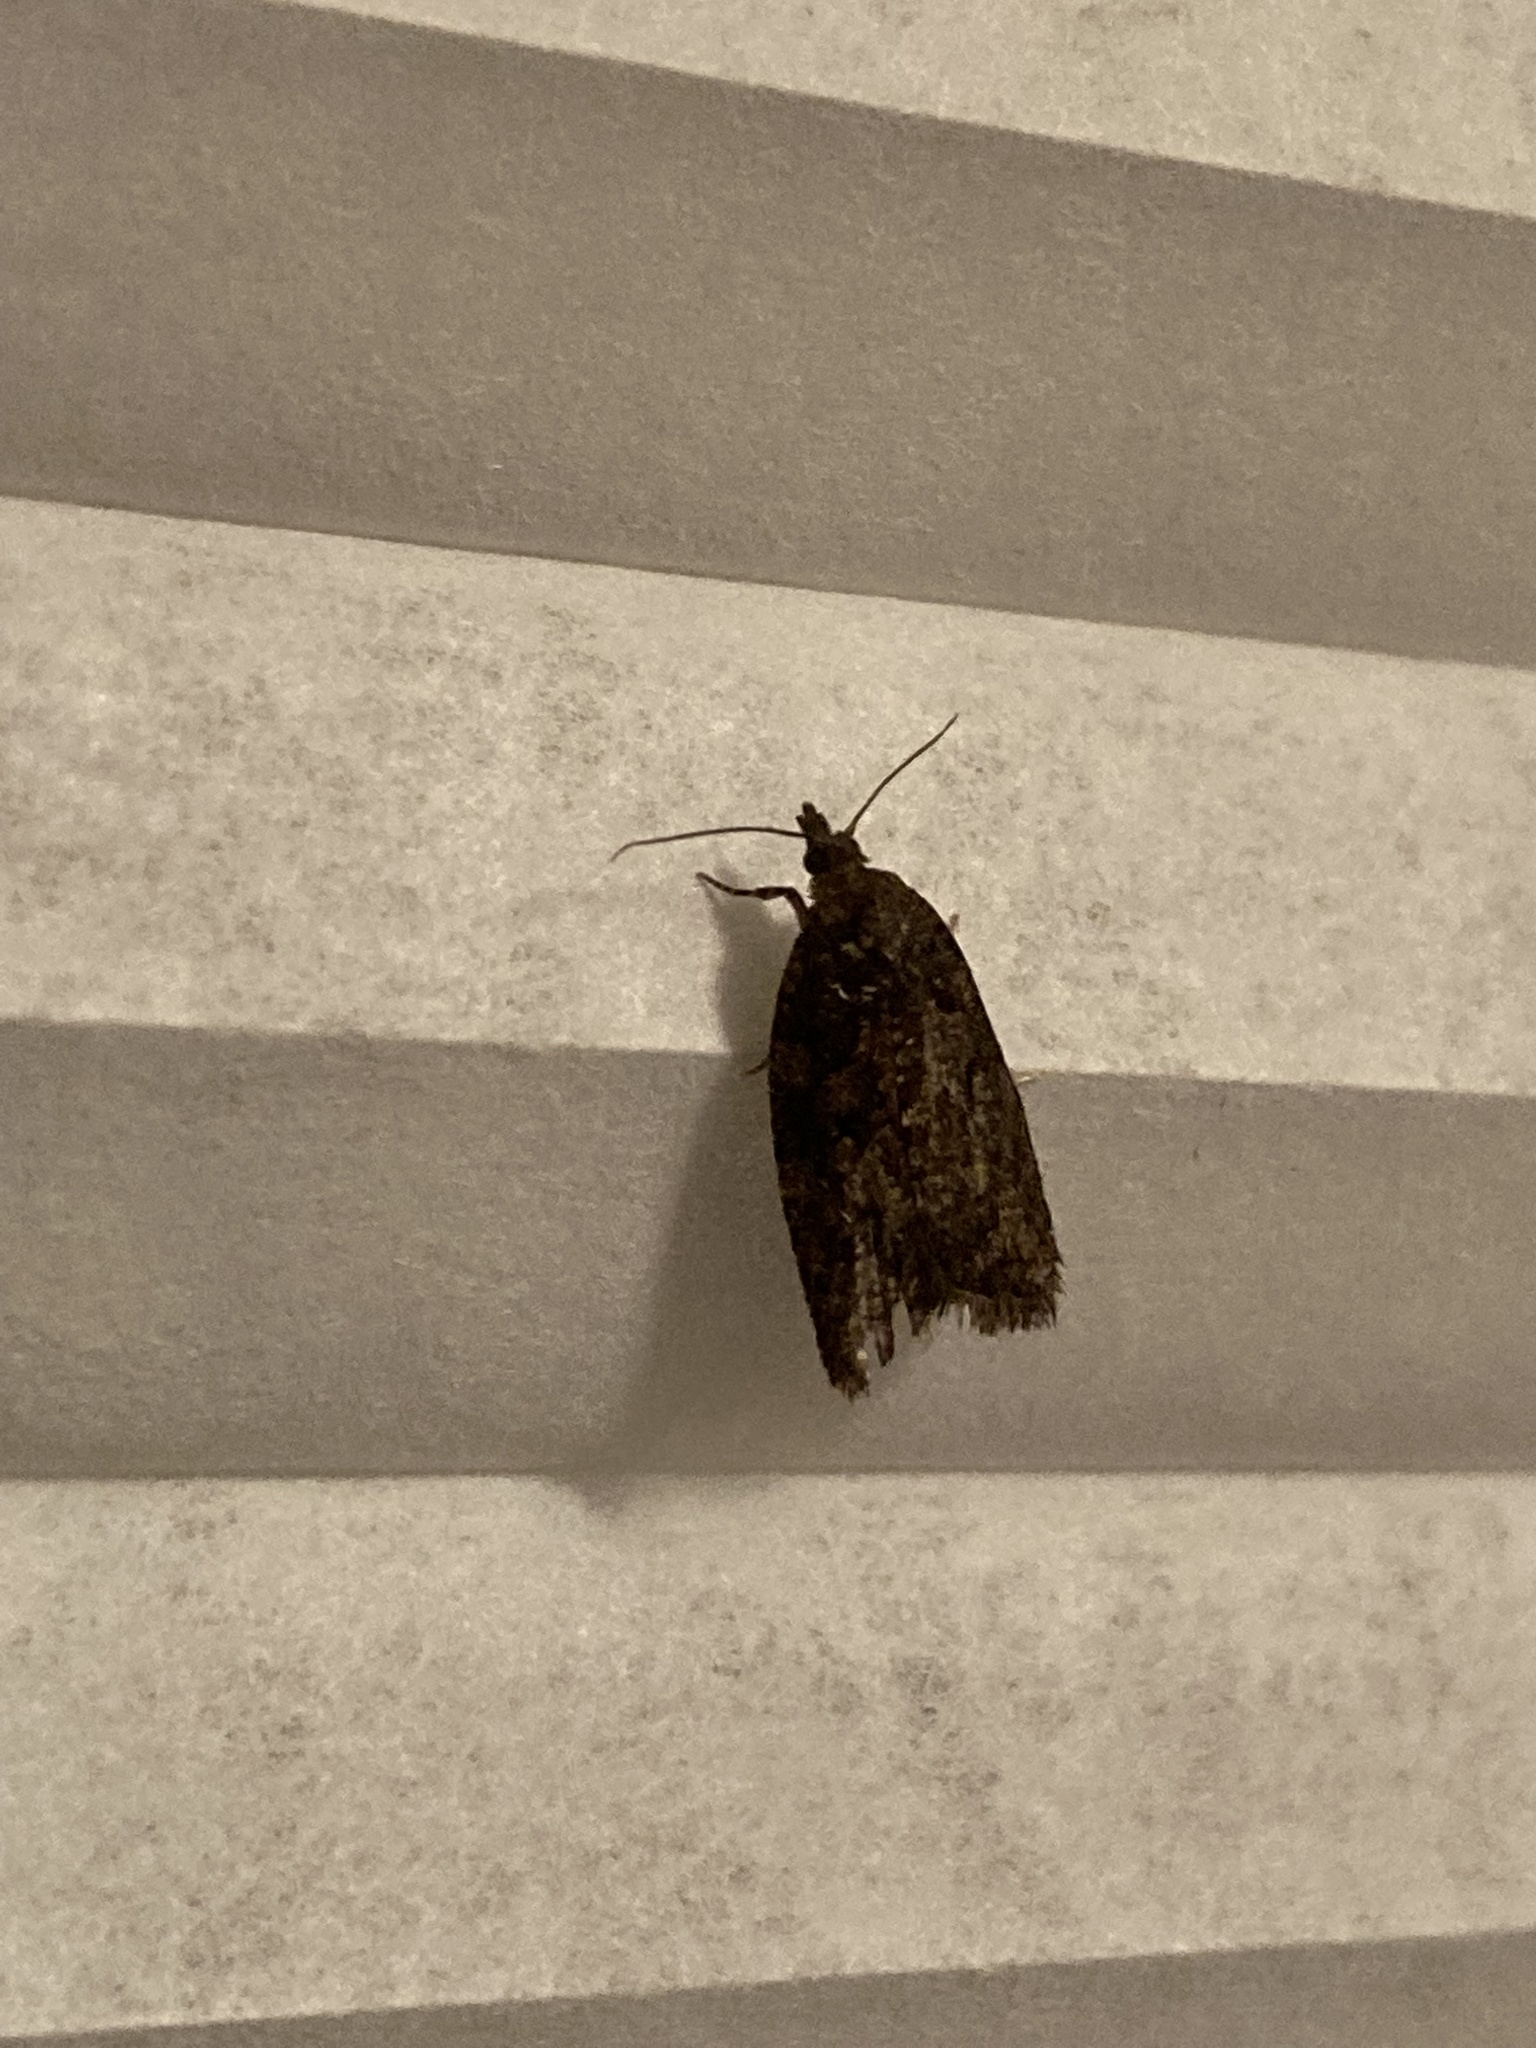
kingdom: Animalia
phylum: Arthropoda
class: Insecta
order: Lepidoptera
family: Tortricidae
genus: Capua
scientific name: Capua intractana
